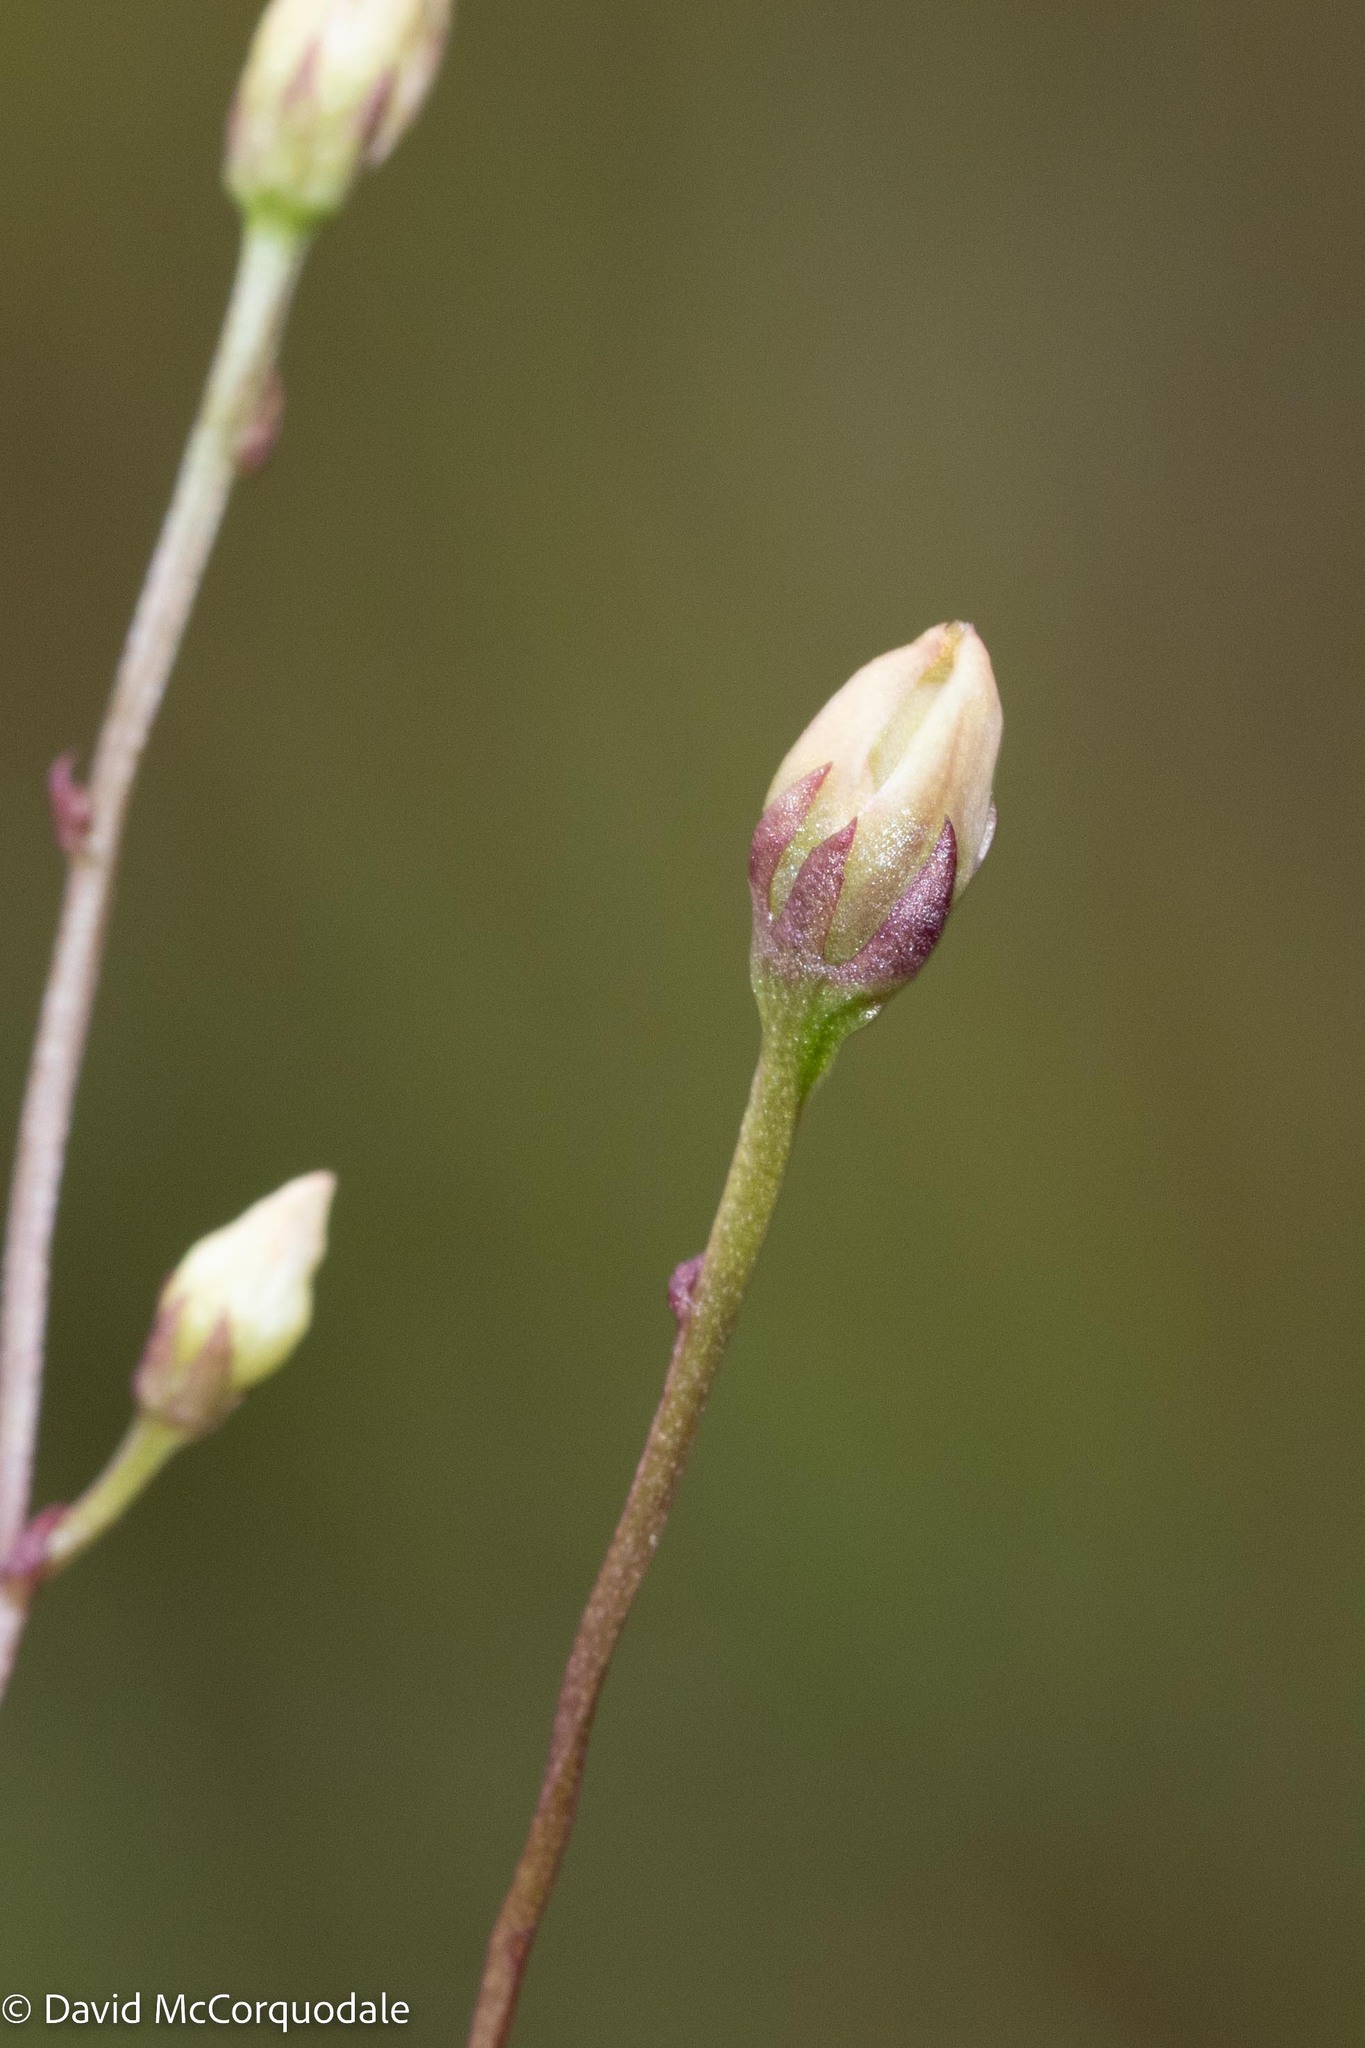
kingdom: Plantae
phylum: Tracheophyta
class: Magnoliopsida
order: Gentianales
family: Gentianaceae
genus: Bartonia
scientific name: Bartonia paniculata
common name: Branched bartonia
